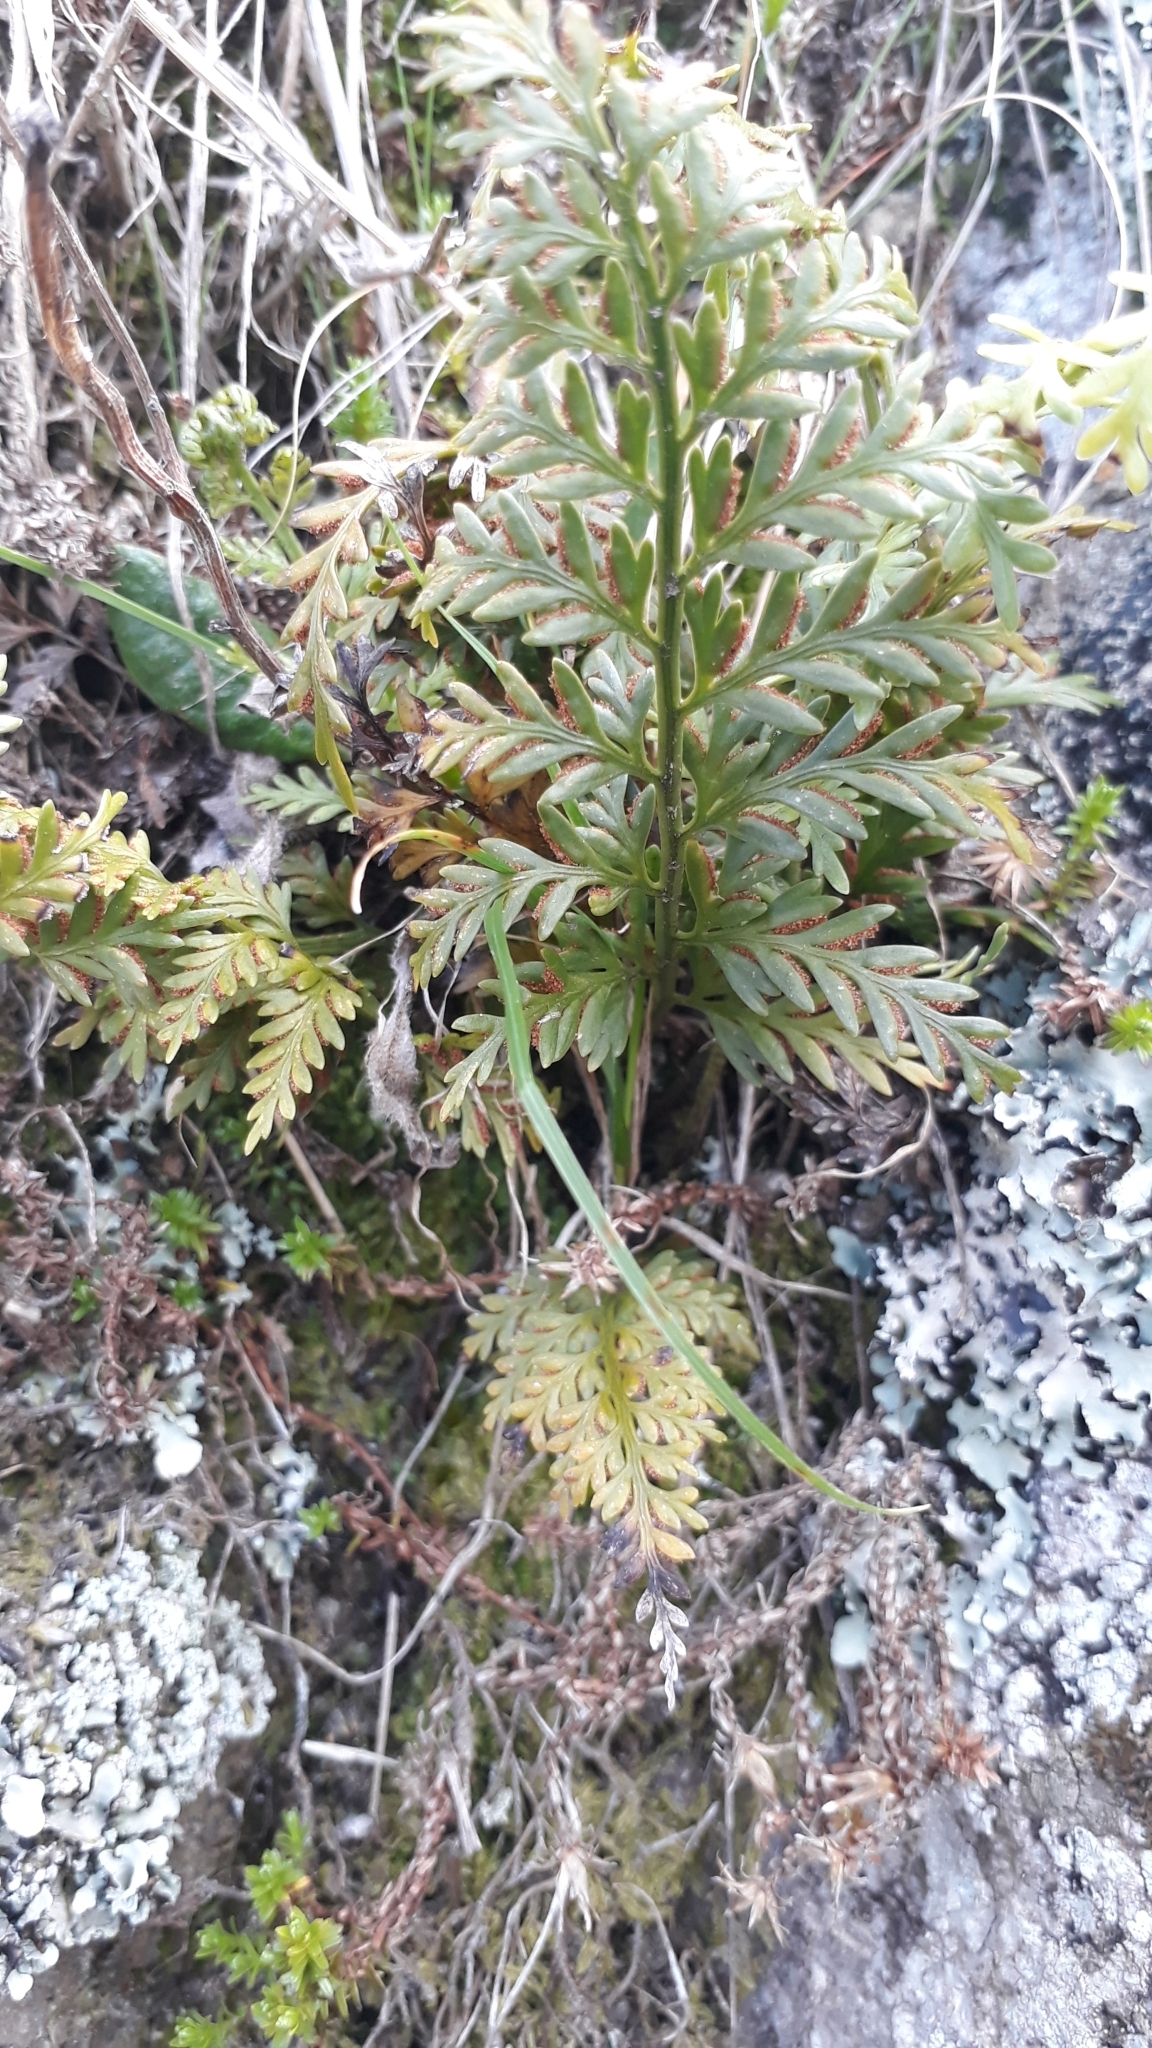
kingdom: Plantae
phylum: Tracheophyta
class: Polypodiopsida
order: Polypodiales
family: Aspleniaceae
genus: Asplenium
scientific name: Asplenium appendiculatum
